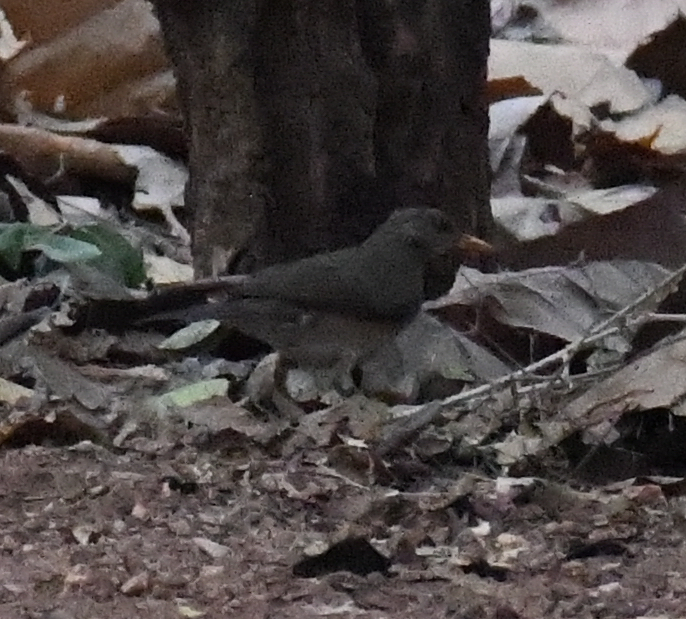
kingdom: Animalia
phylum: Chordata
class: Aves
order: Passeriformes
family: Turdidae
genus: Turdus
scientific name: Turdus pelios
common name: African thrush
